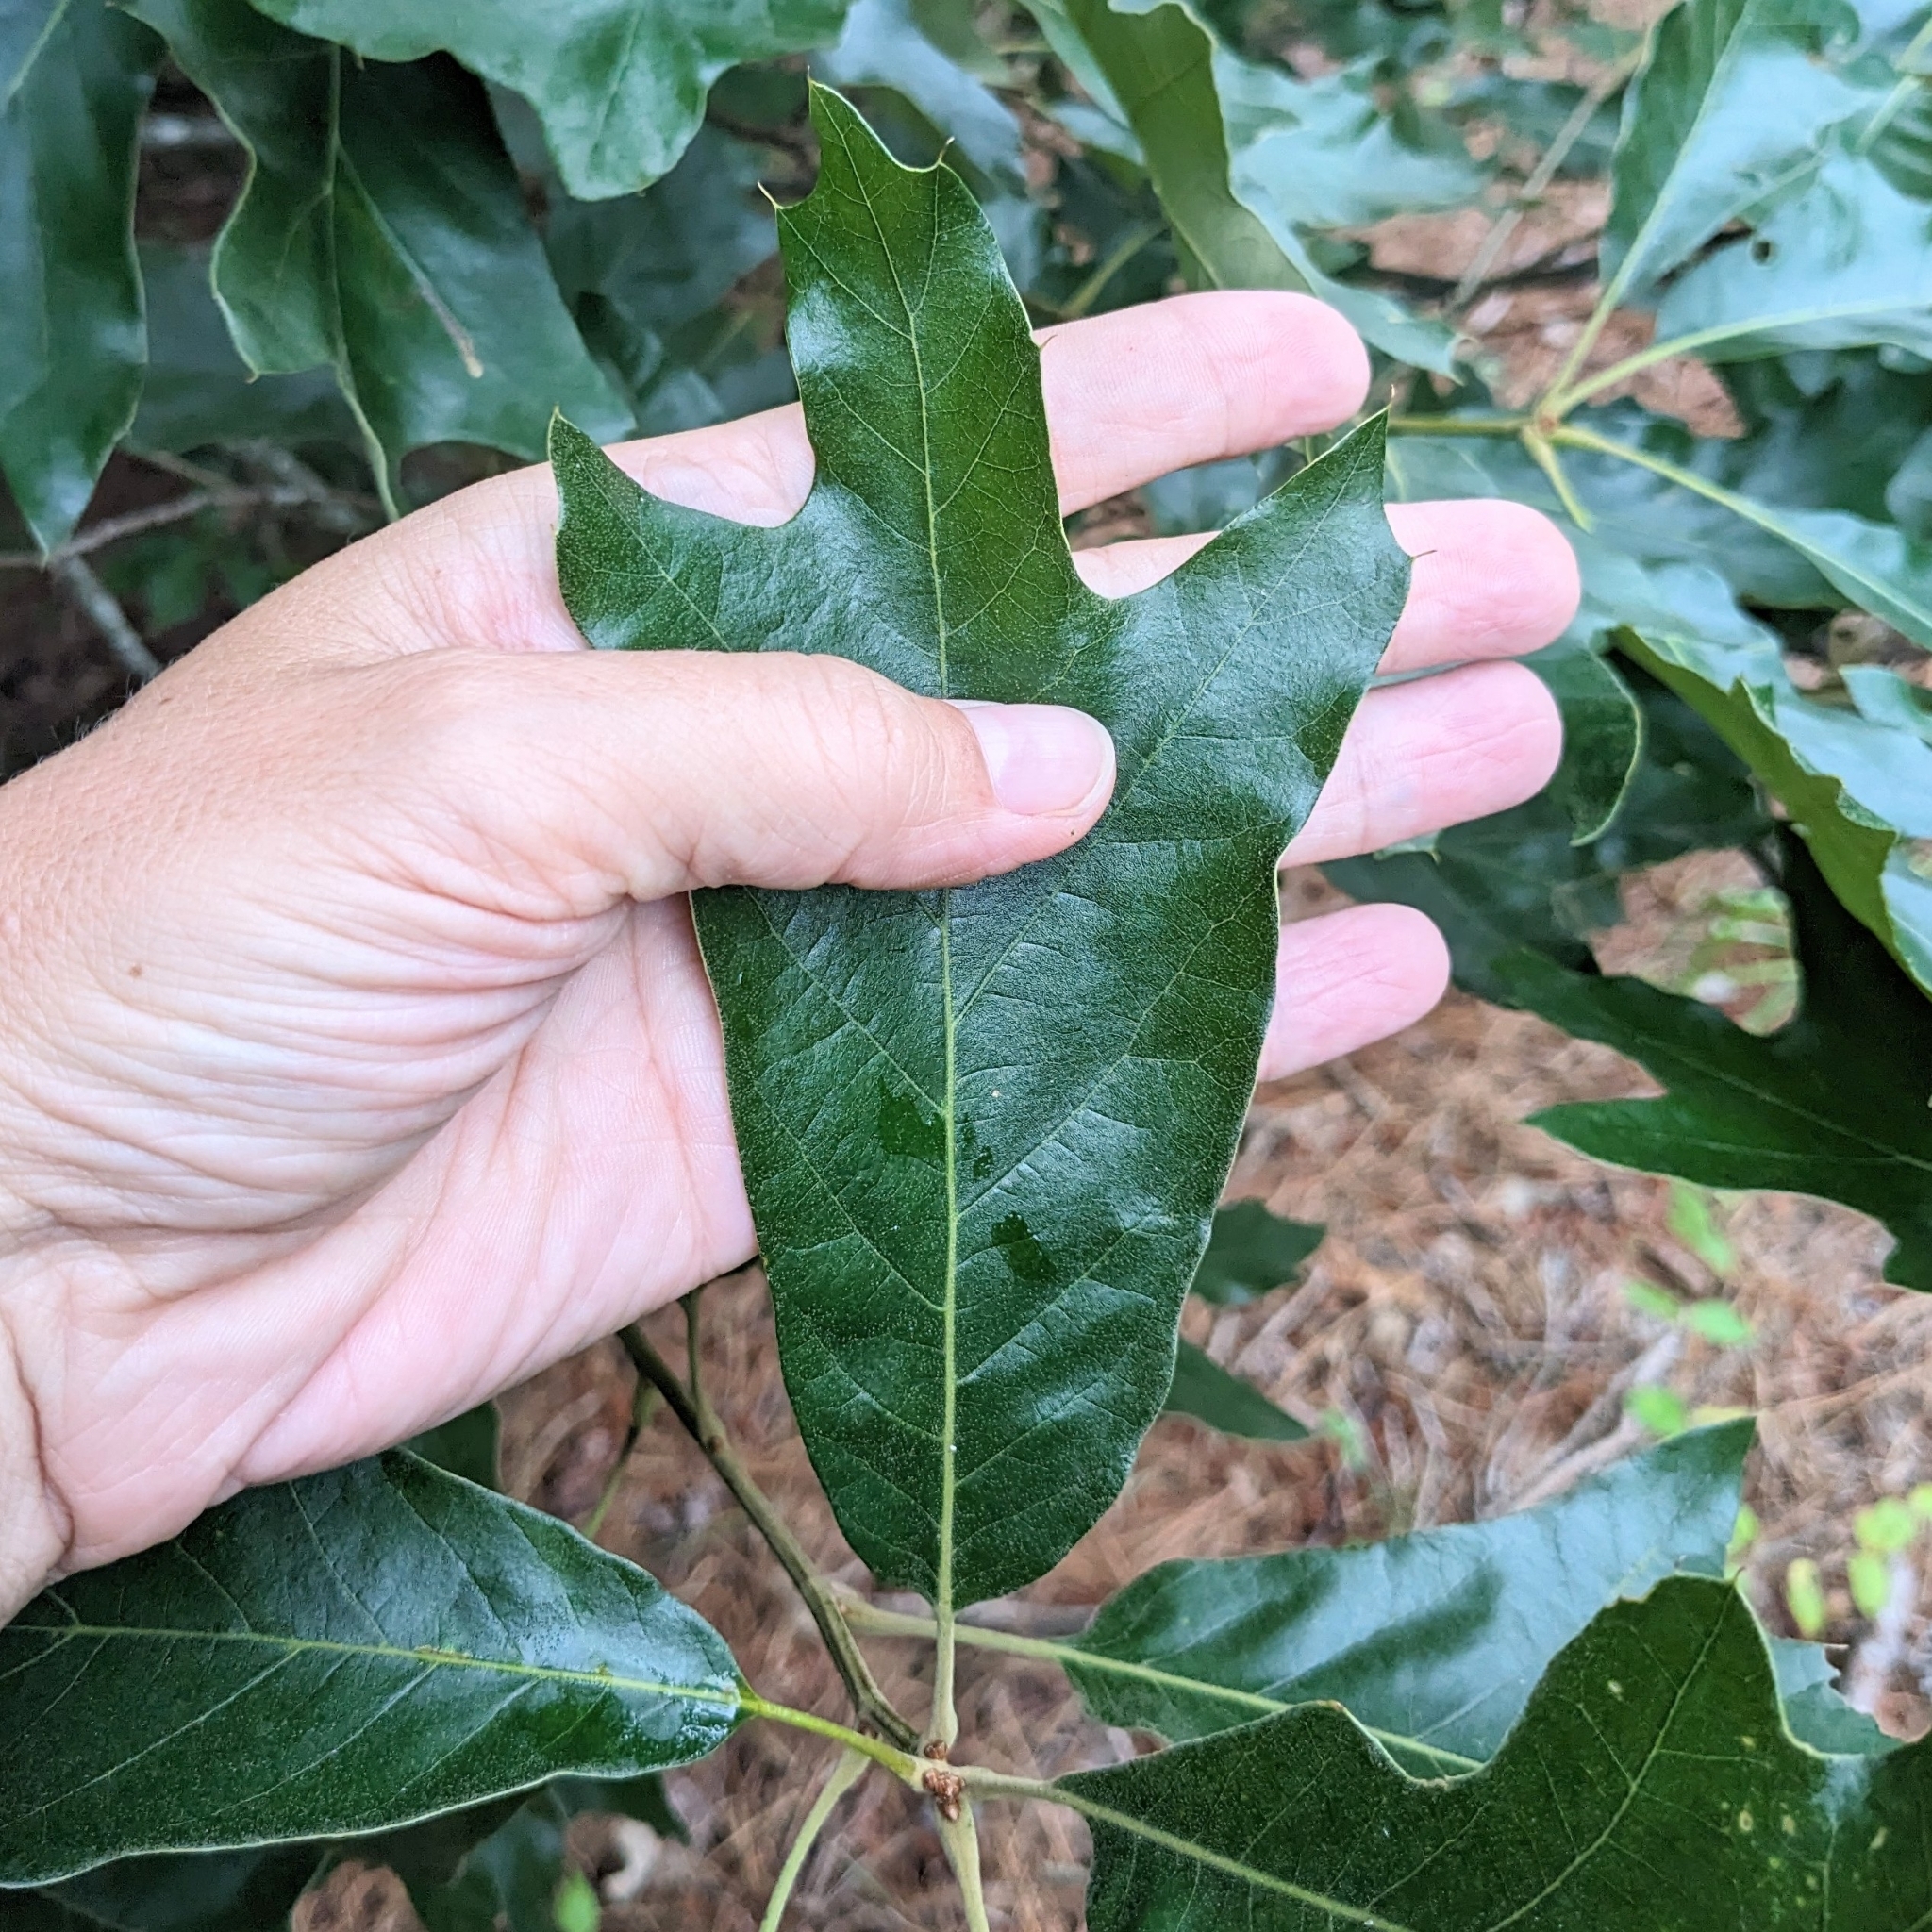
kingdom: Plantae
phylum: Tracheophyta
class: Magnoliopsida
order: Fagales
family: Fagaceae
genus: Quercus
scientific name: Quercus falcata
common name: Southern red oak
